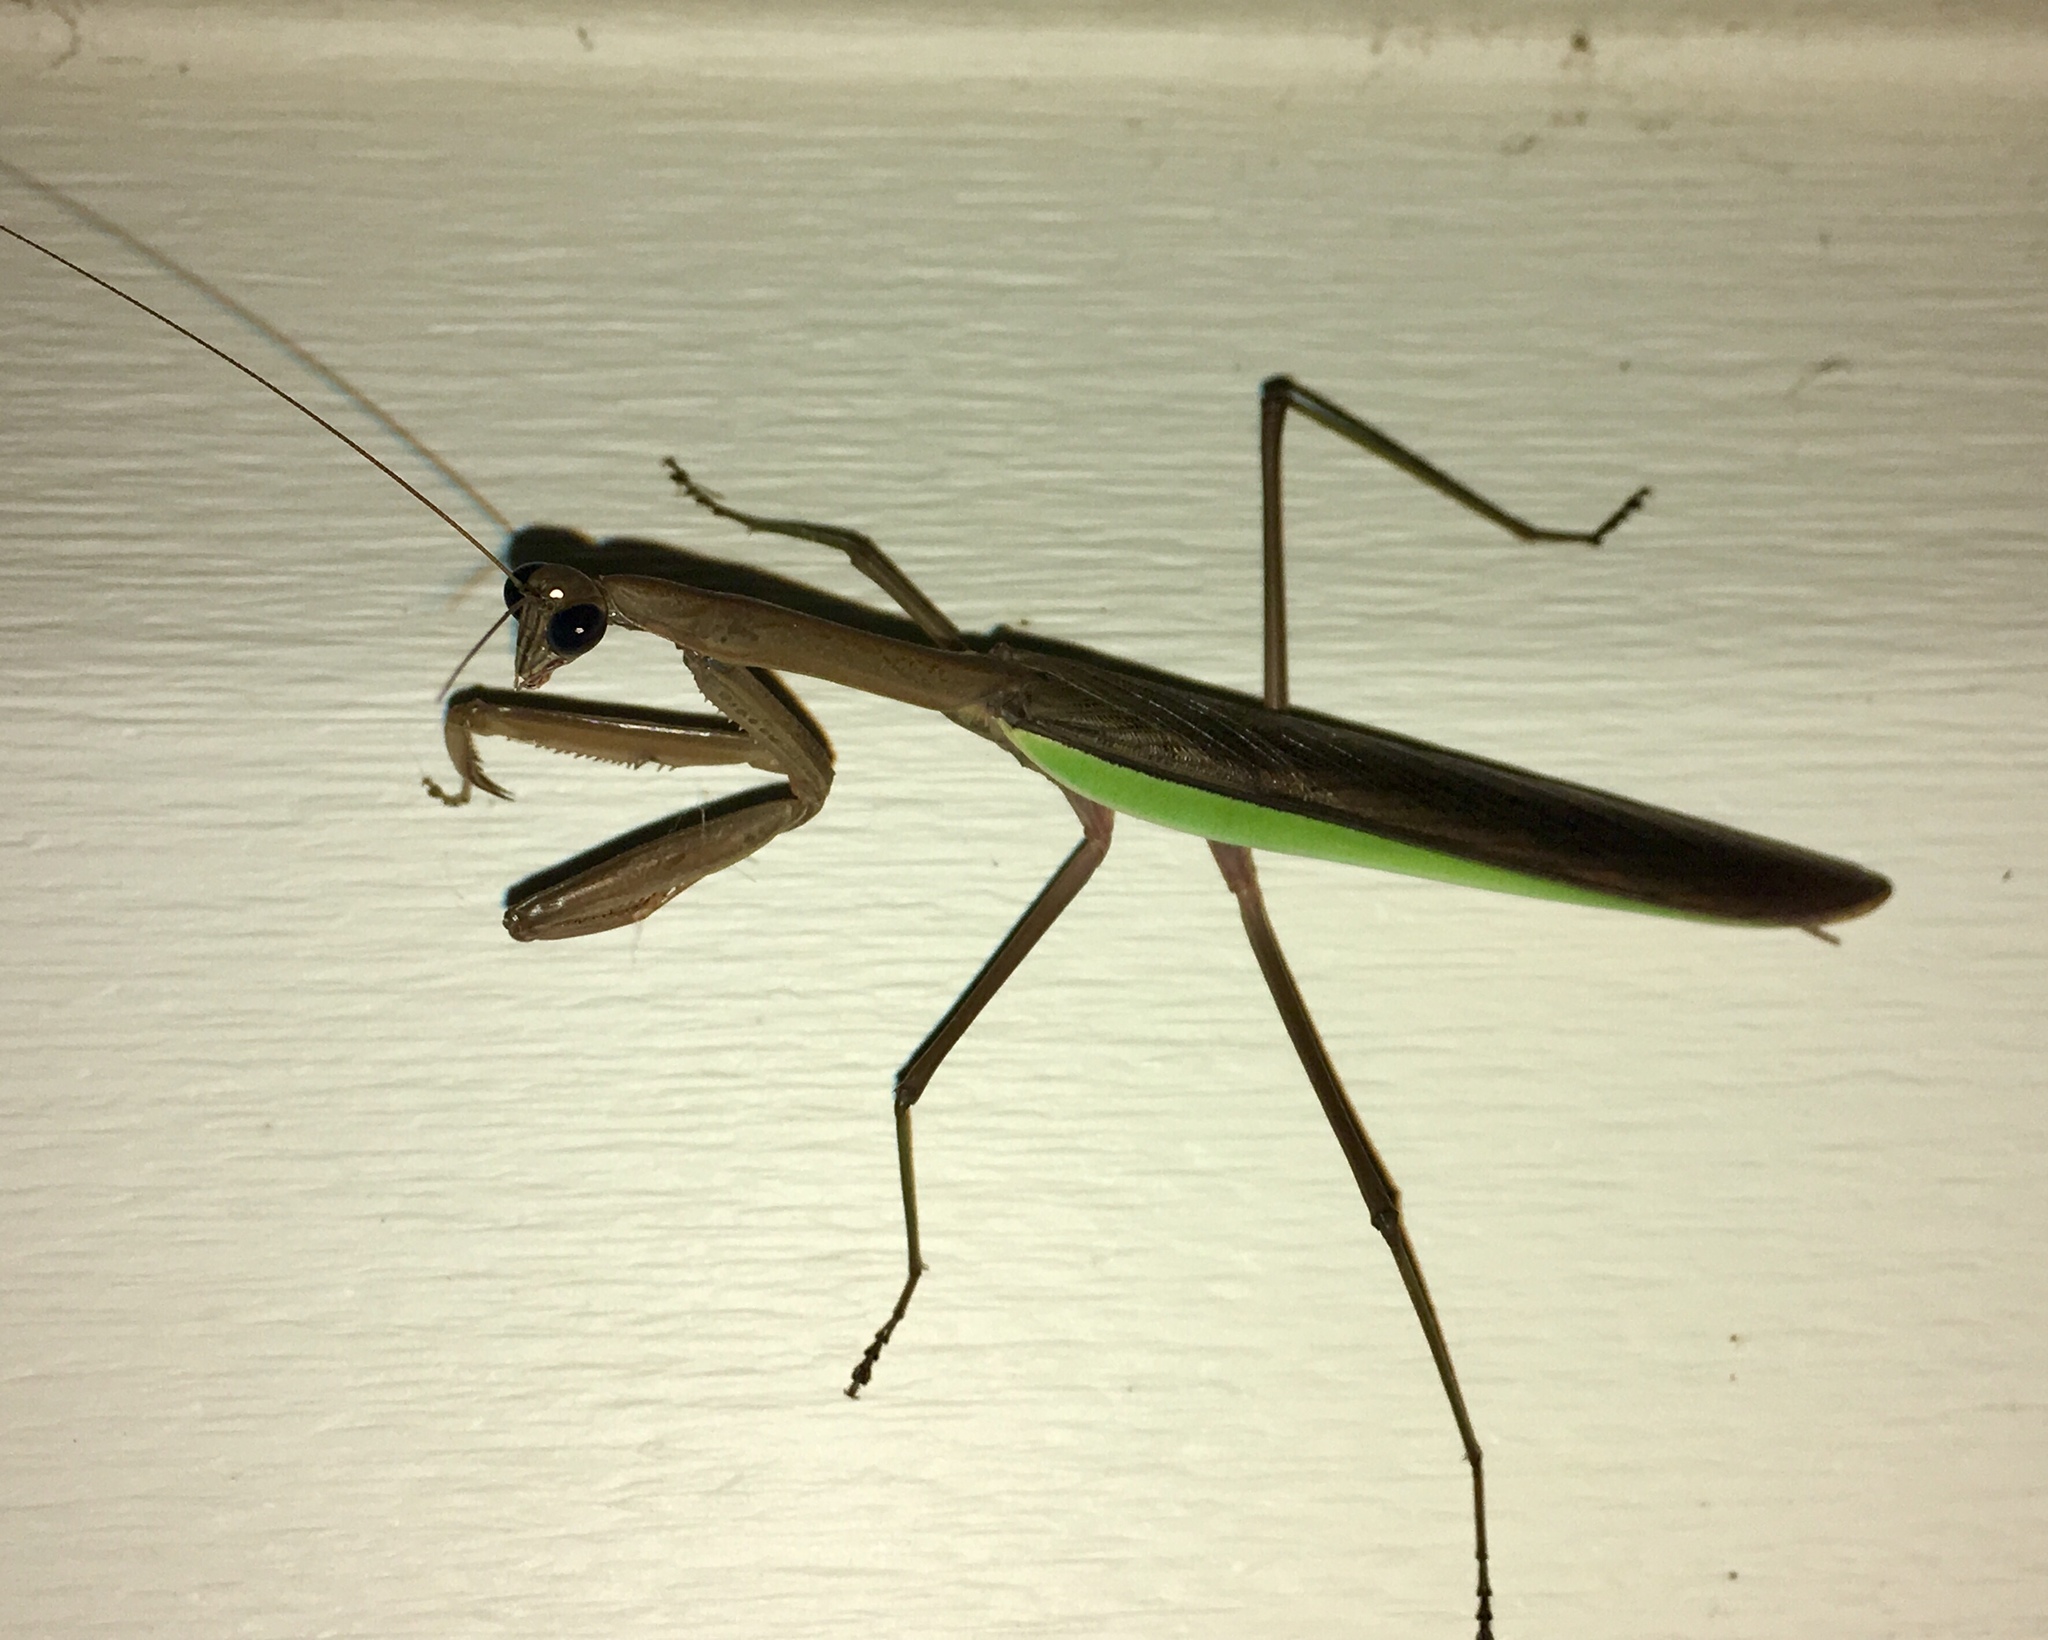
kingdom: Animalia
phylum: Arthropoda
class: Insecta
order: Mantodea
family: Mantidae
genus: Tenodera
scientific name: Tenodera sinensis
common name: Chinese mantis
